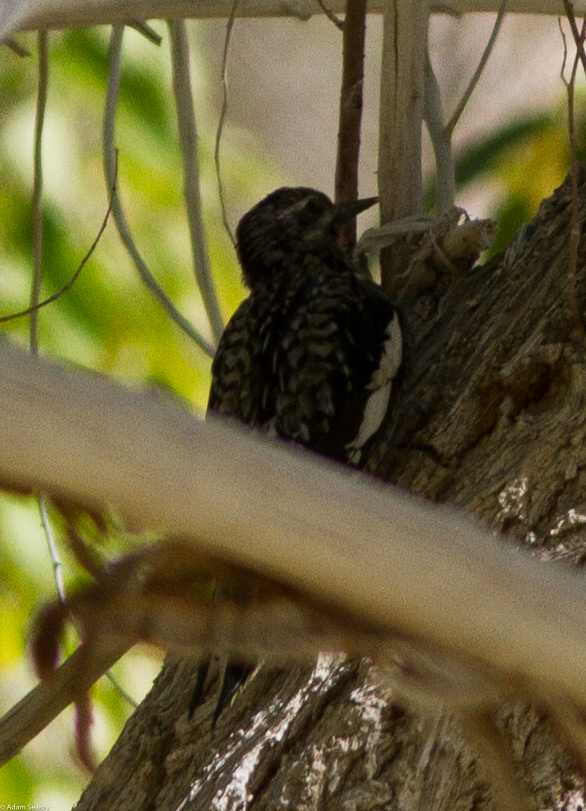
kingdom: Animalia
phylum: Chordata
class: Aves
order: Piciformes
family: Picidae
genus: Sphyrapicus
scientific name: Sphyrapicus varius
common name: Yellow-bellied sapsucker
